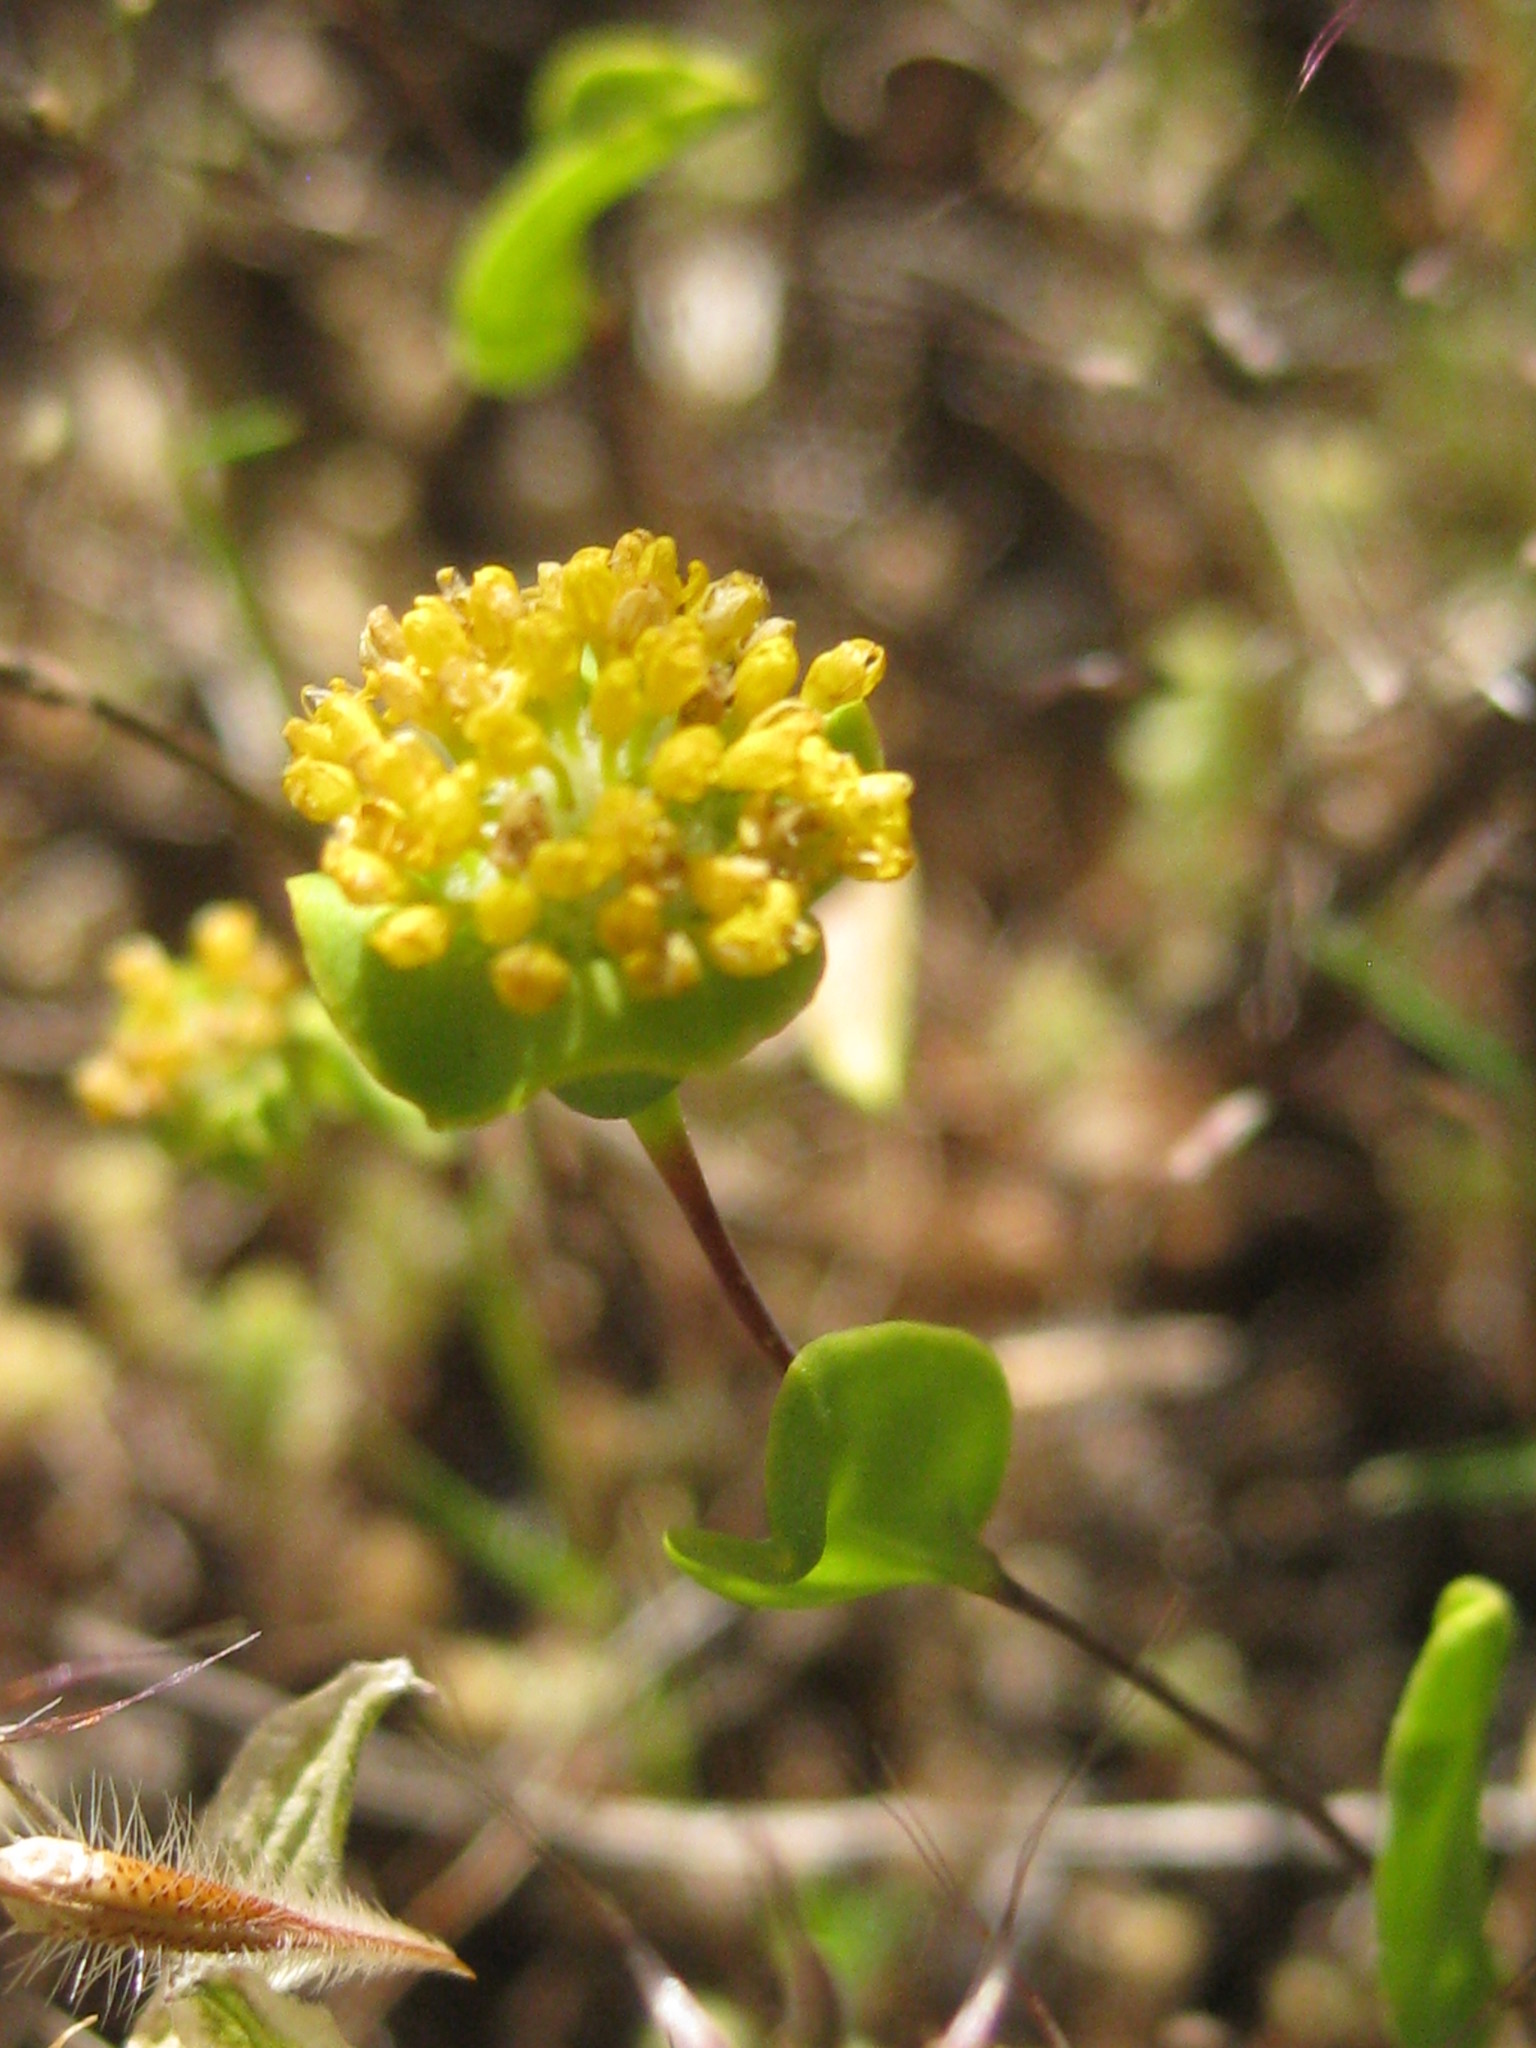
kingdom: Plantae
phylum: Tracheophyta
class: Magnoliopsida
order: Asterales
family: Asteraceae
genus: Dithyrostegia
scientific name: Dithyrostegia amplexicaulis
